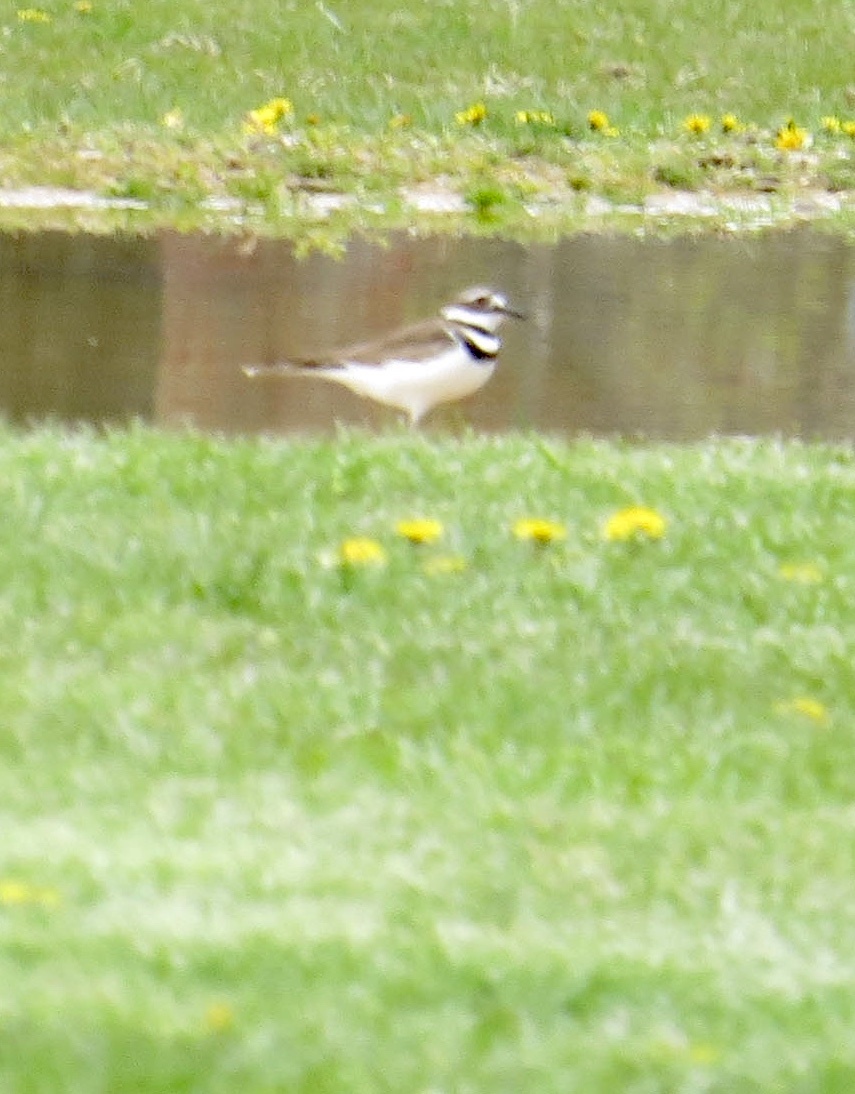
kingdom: Animalia
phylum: Chordata
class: Aves
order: Charadriiformes
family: Charadriidae
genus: Charadrius
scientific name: Charadrius vociferus
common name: Killdeer
